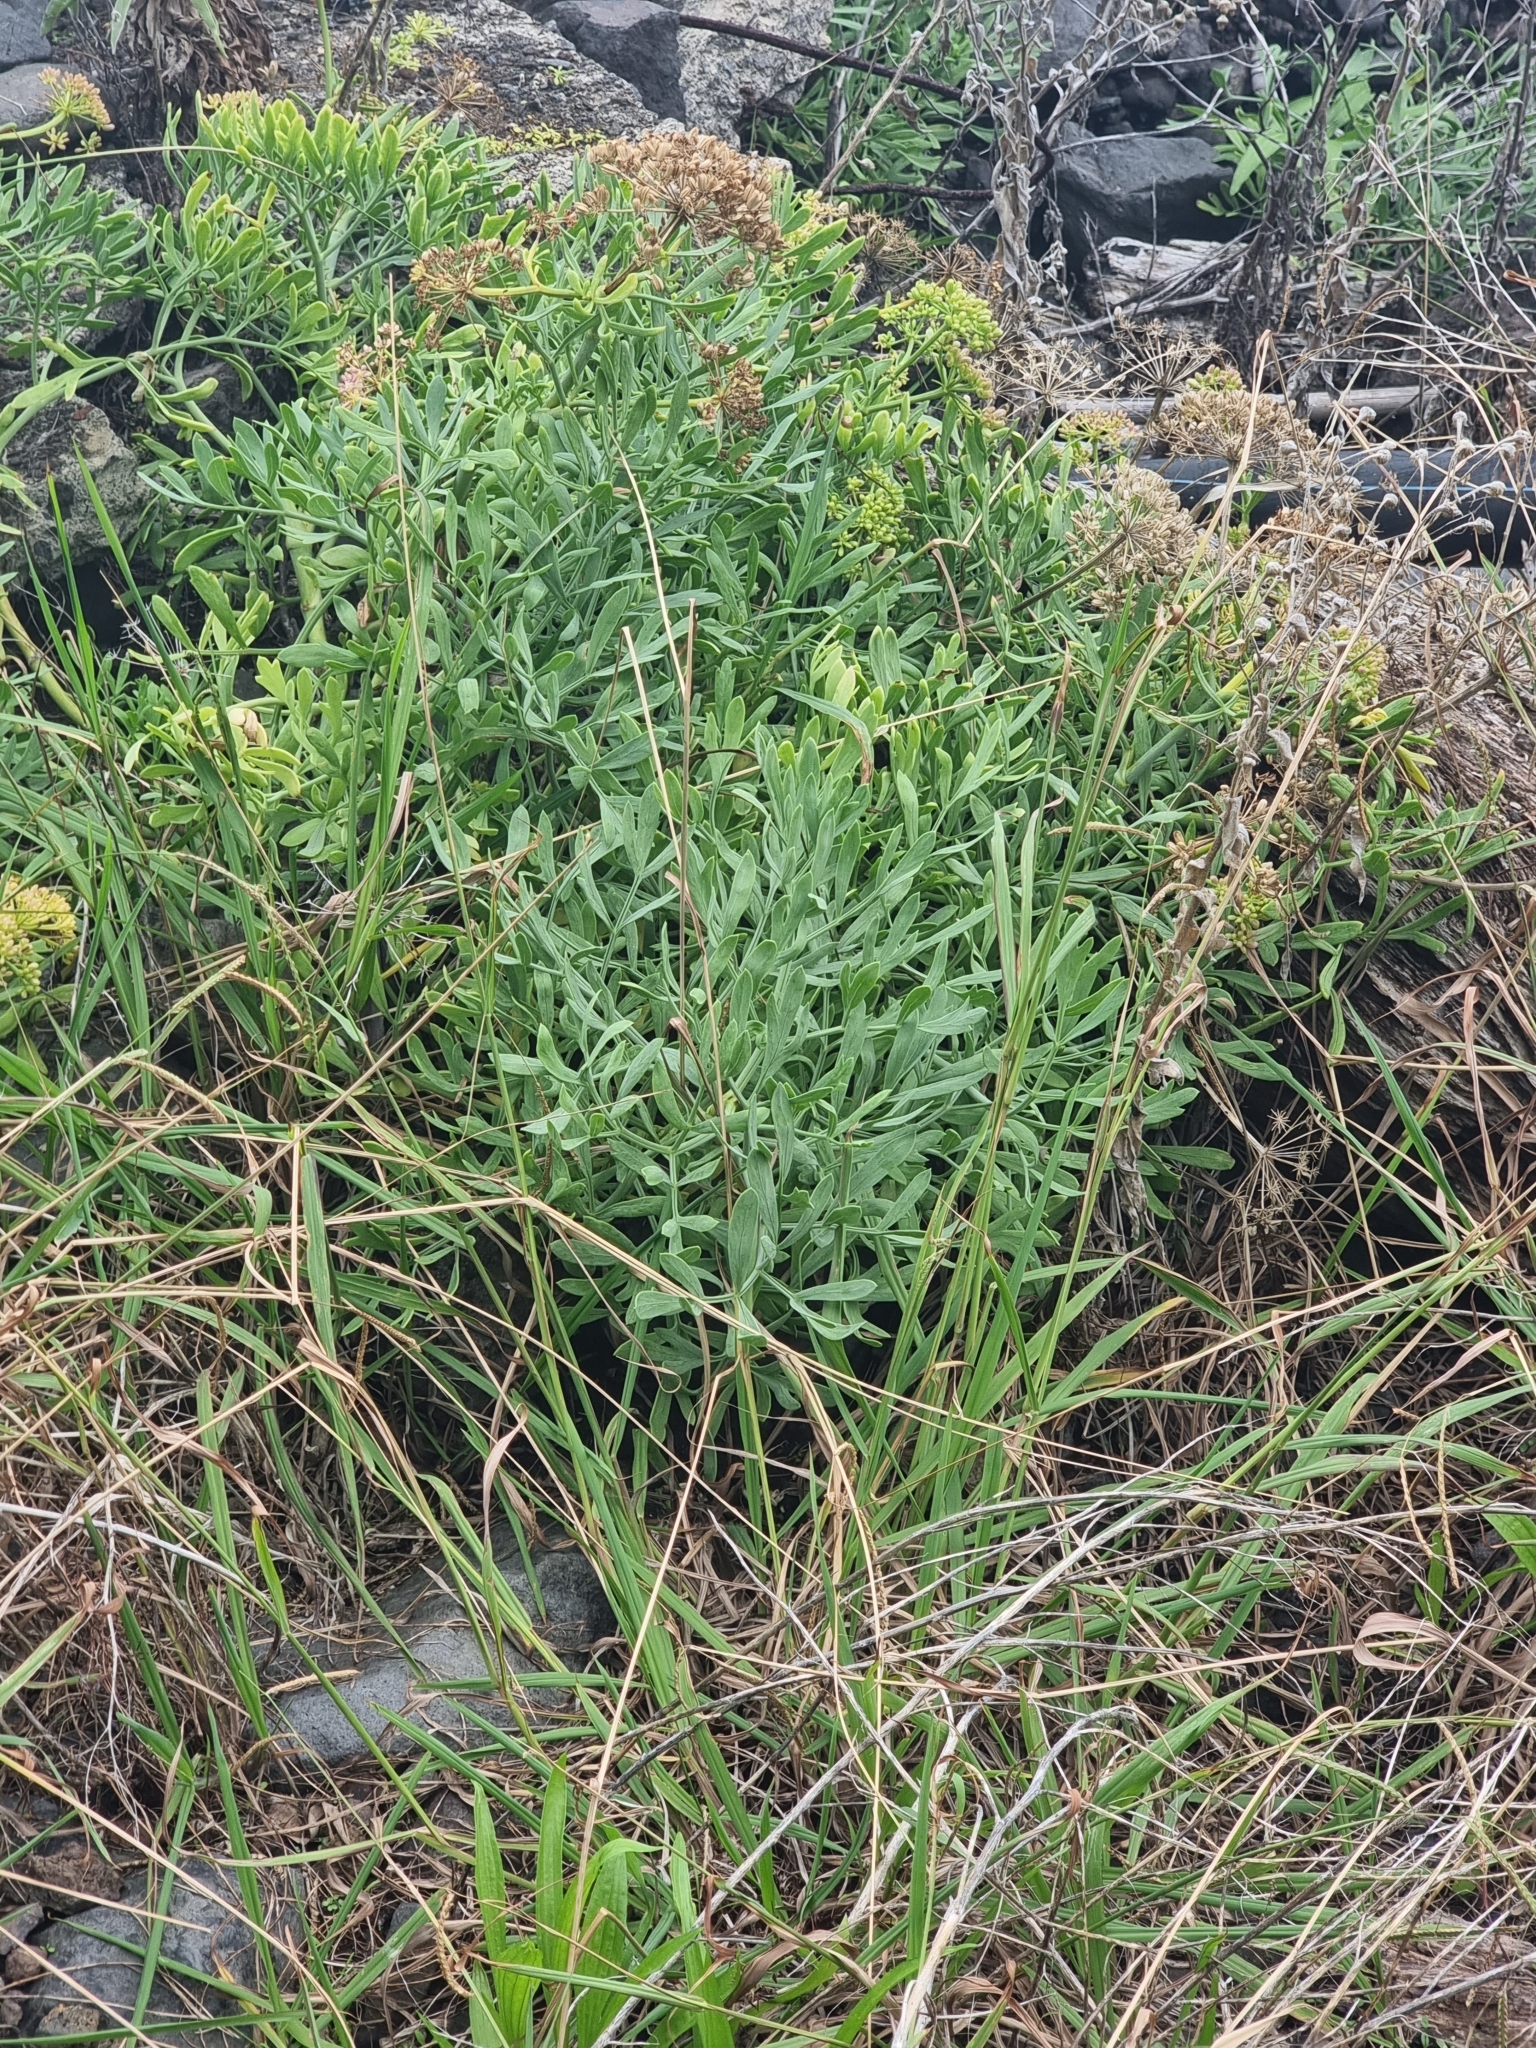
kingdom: Plantae
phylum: Tracheophyta
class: Magnoliopsida
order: Apiales
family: Apiaceae
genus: Crithmum
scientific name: Crithmum maritimum
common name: Rock samphire
